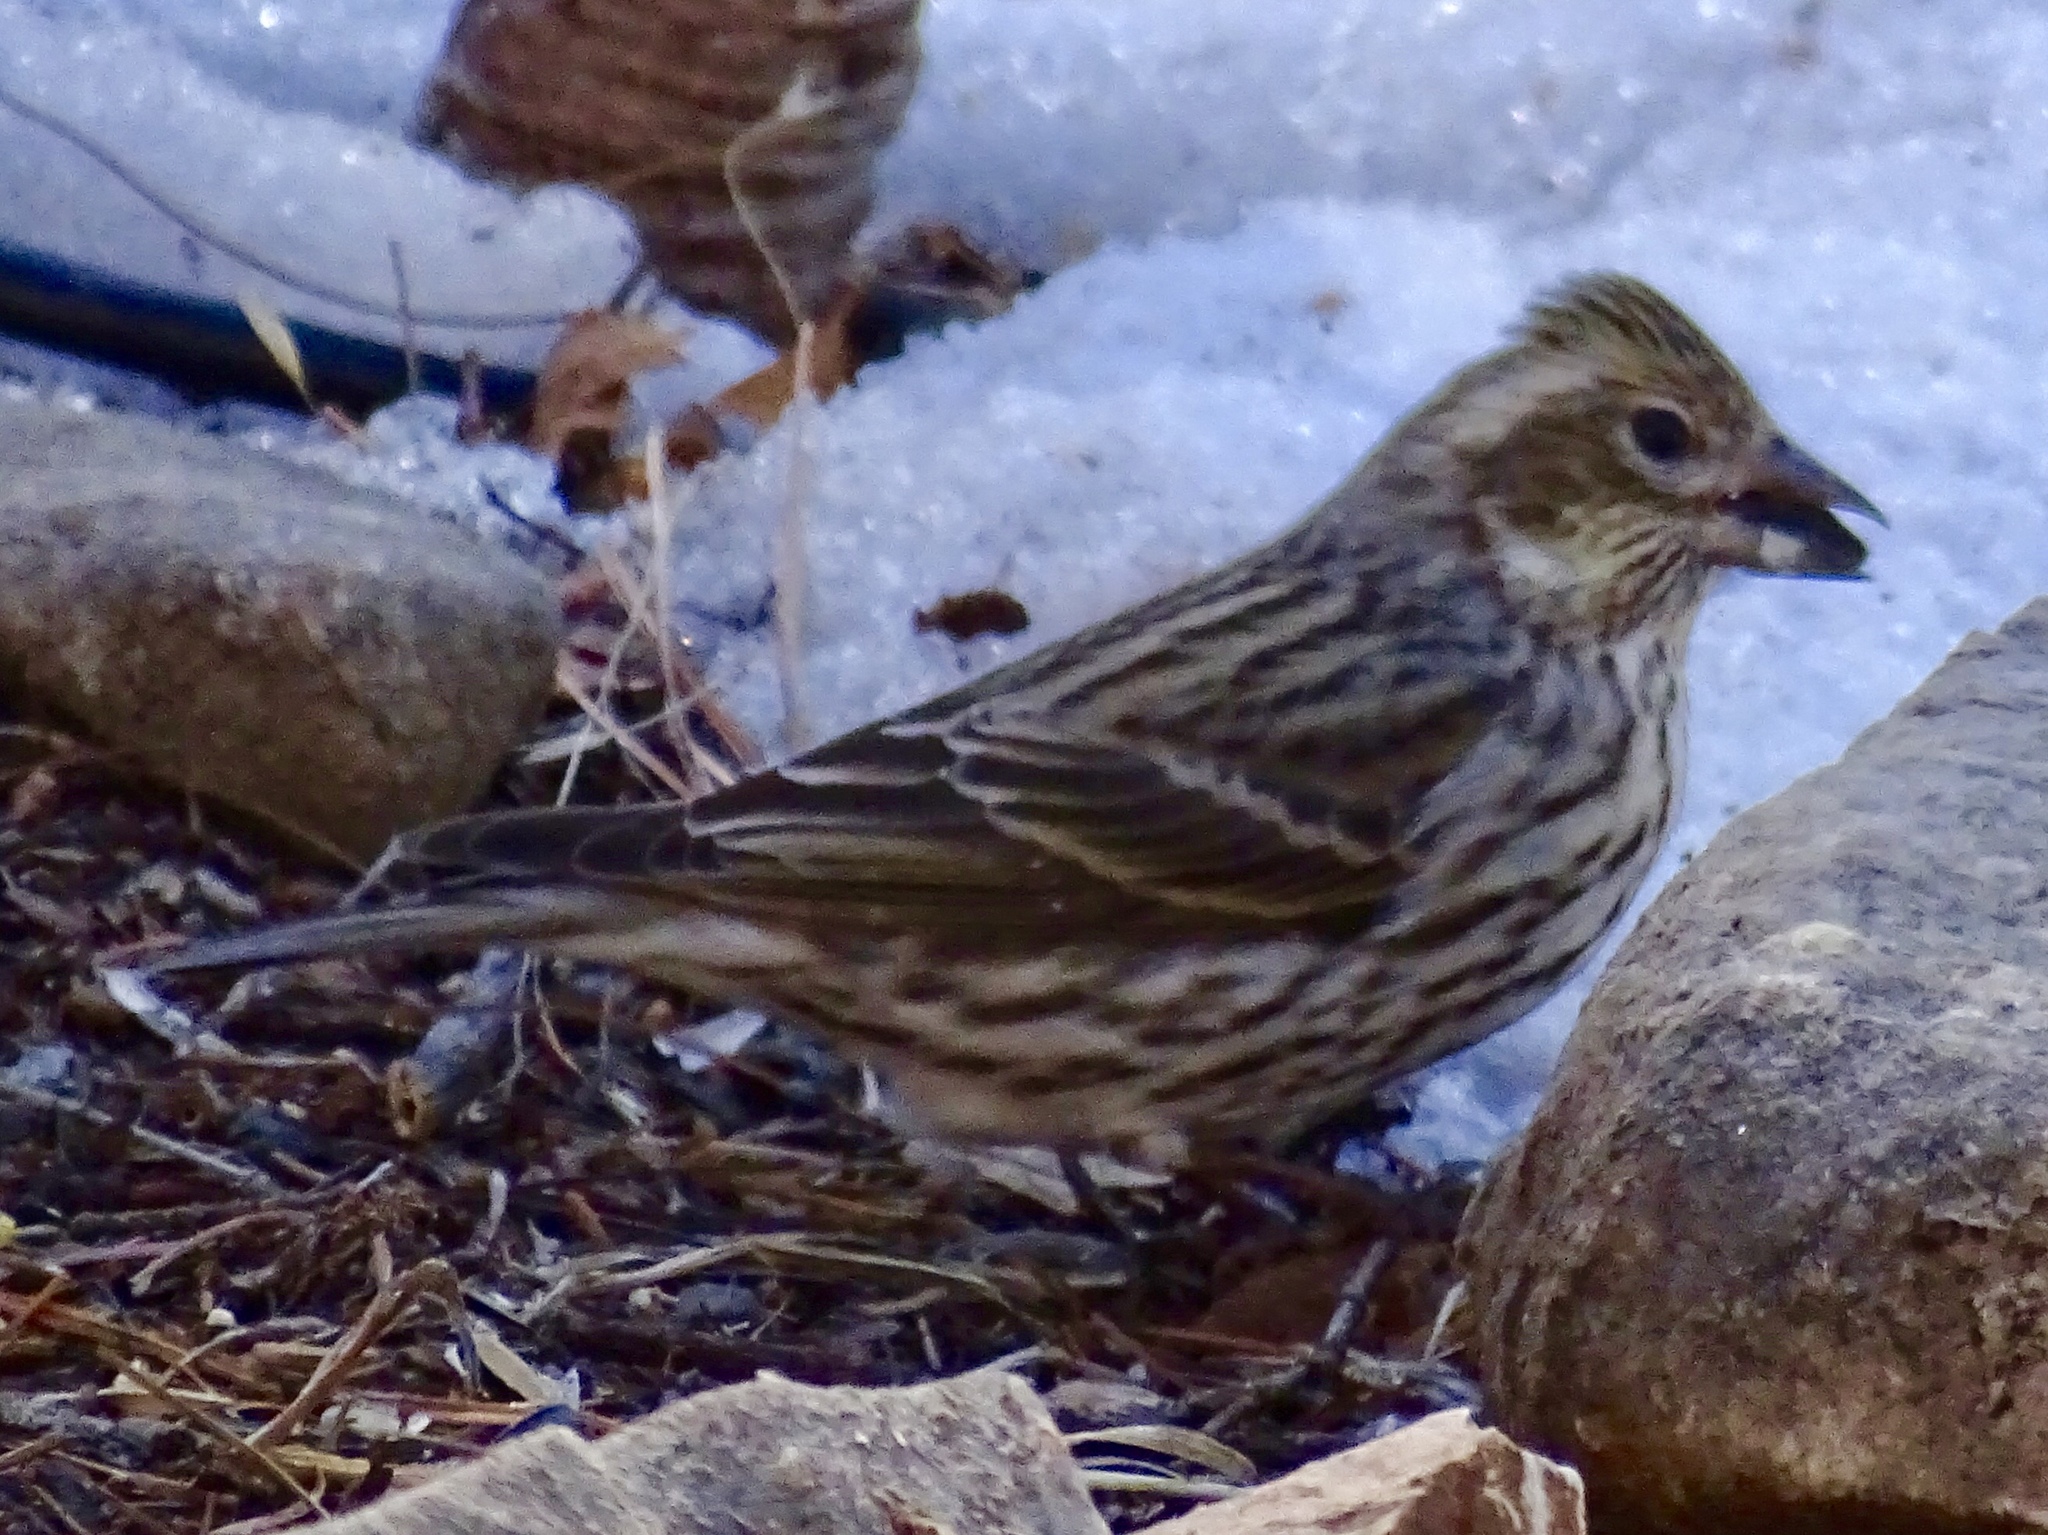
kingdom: Animalia
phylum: Chordata
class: Aves
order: Passeriformes
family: Fringillidae
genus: Haemorhous
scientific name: Haemorhous cassinii
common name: Cassin's finch
